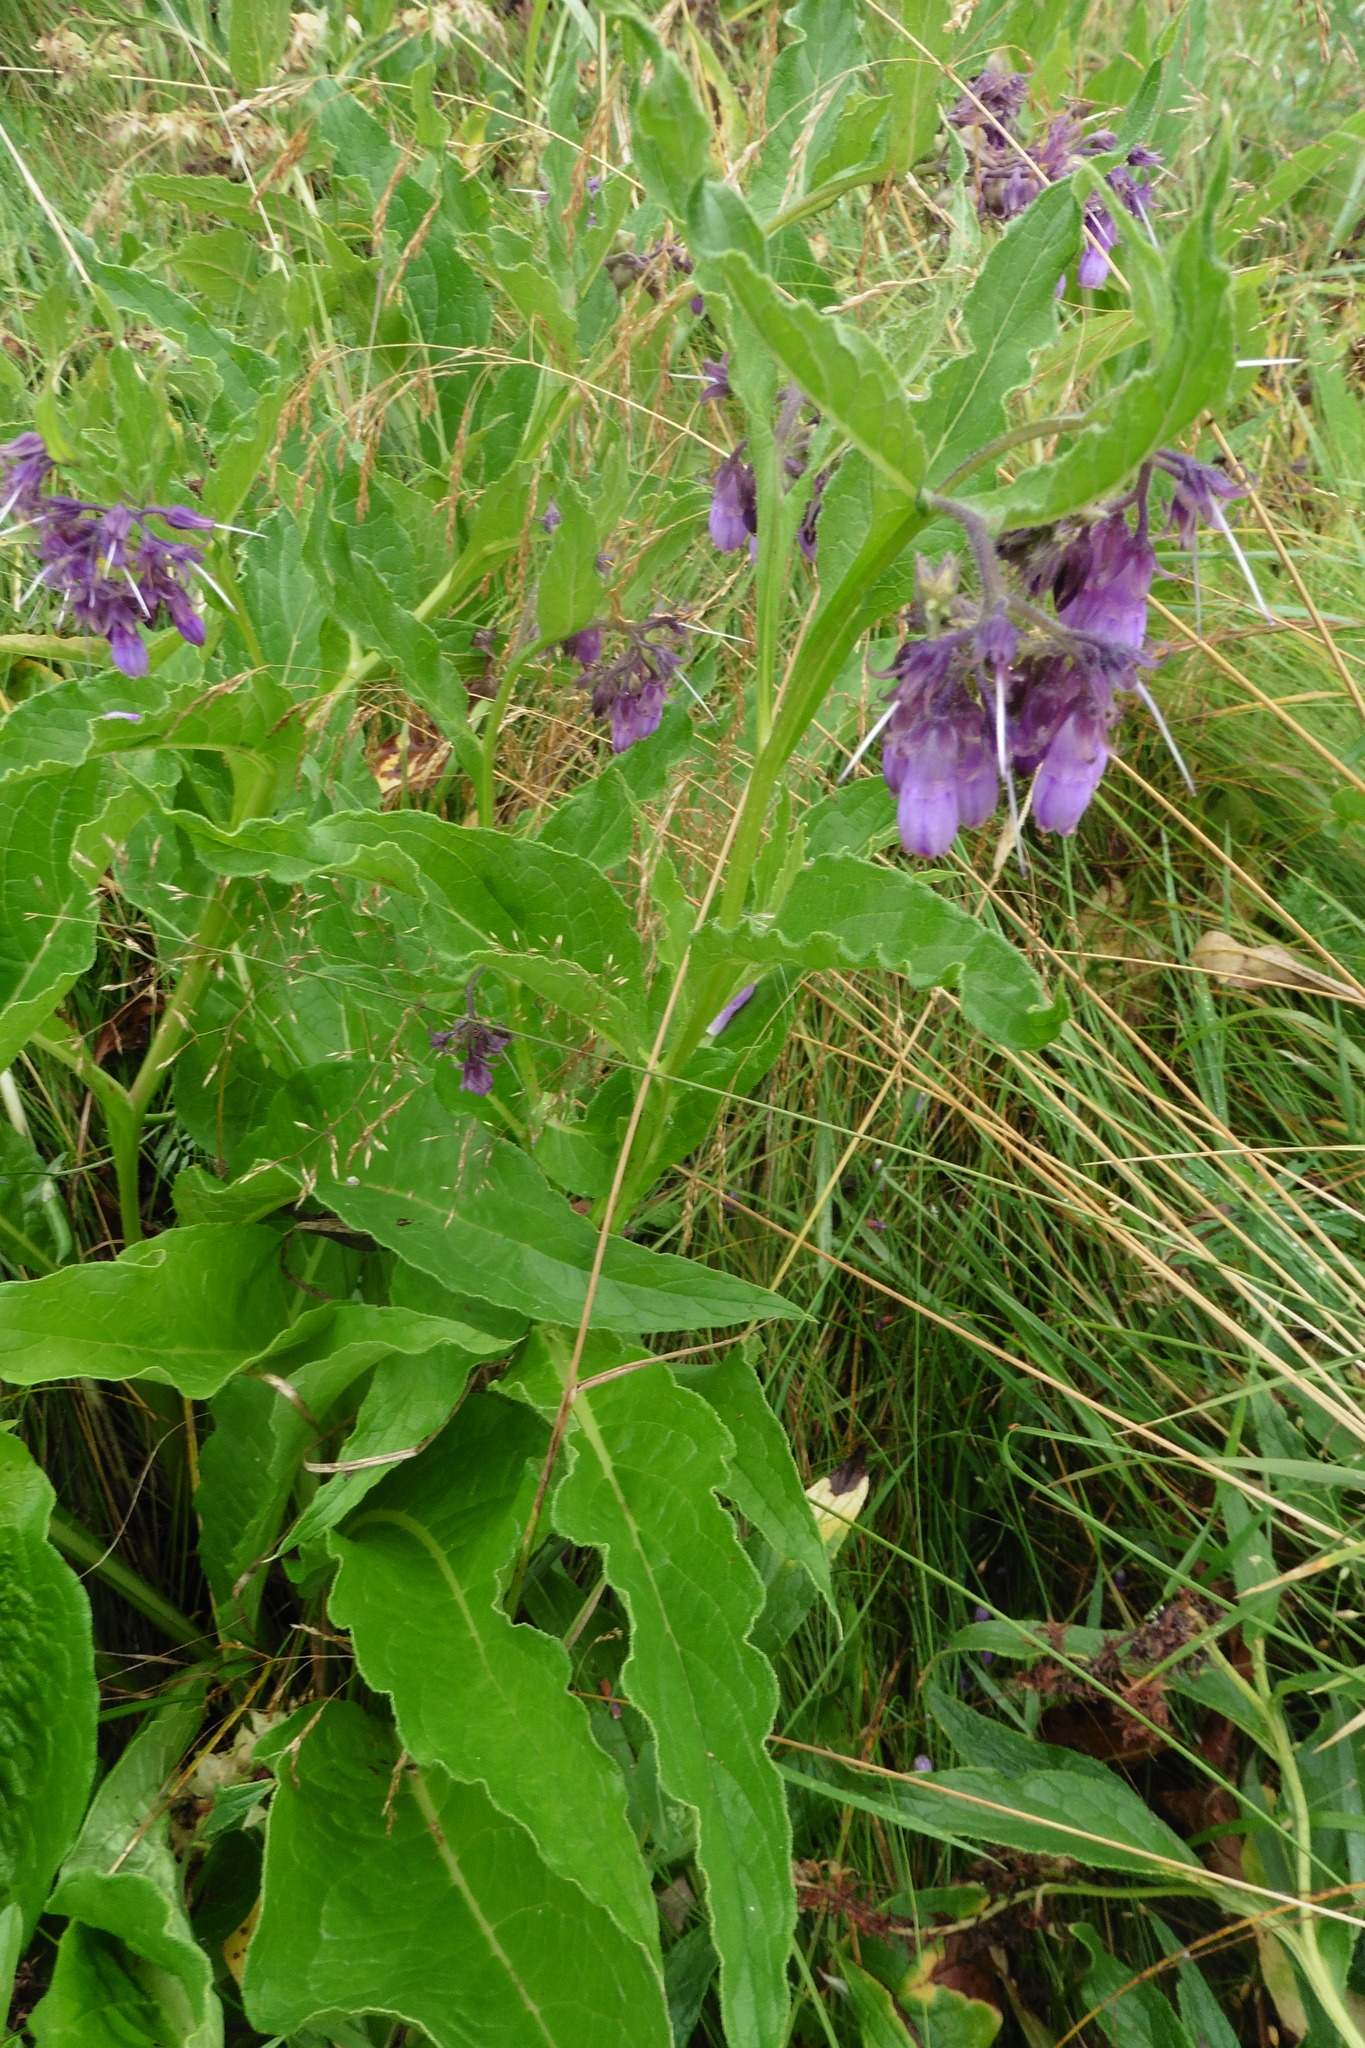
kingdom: Plantae
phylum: Tracheophyta
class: Magnoliopsida
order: Boraginales
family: Boraginaceae
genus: Symphytum
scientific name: Symphytum officinale
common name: Common comfrey
